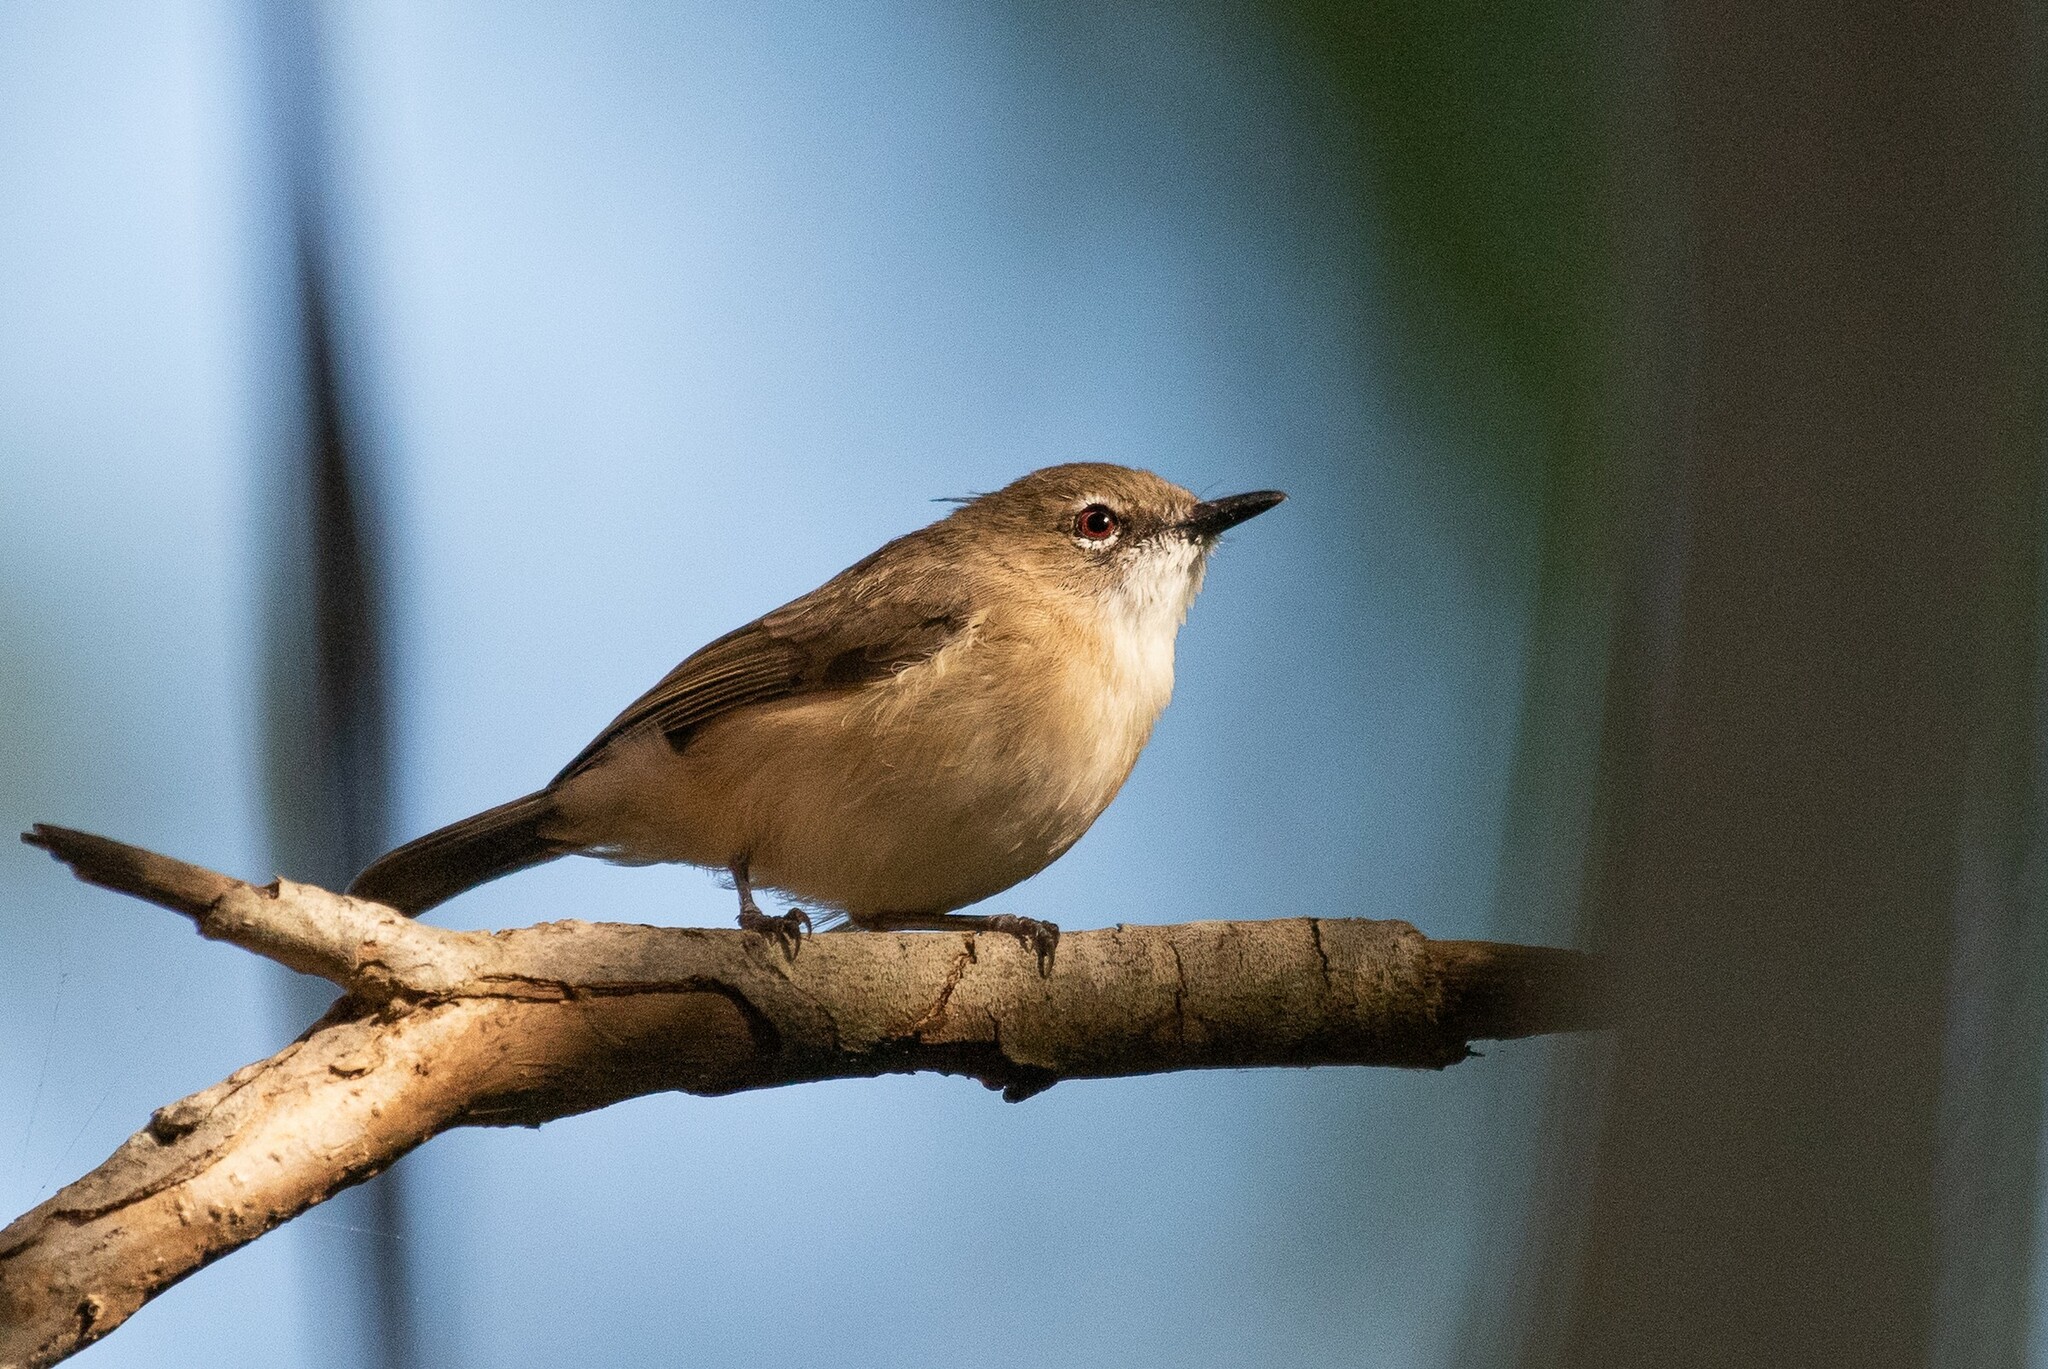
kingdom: Animalia
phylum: Chordata
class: Aves
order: Passeriformes
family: Acanthizidae
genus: Gerygone
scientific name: Gerygone magnirostris
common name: Large-billed gerygone
